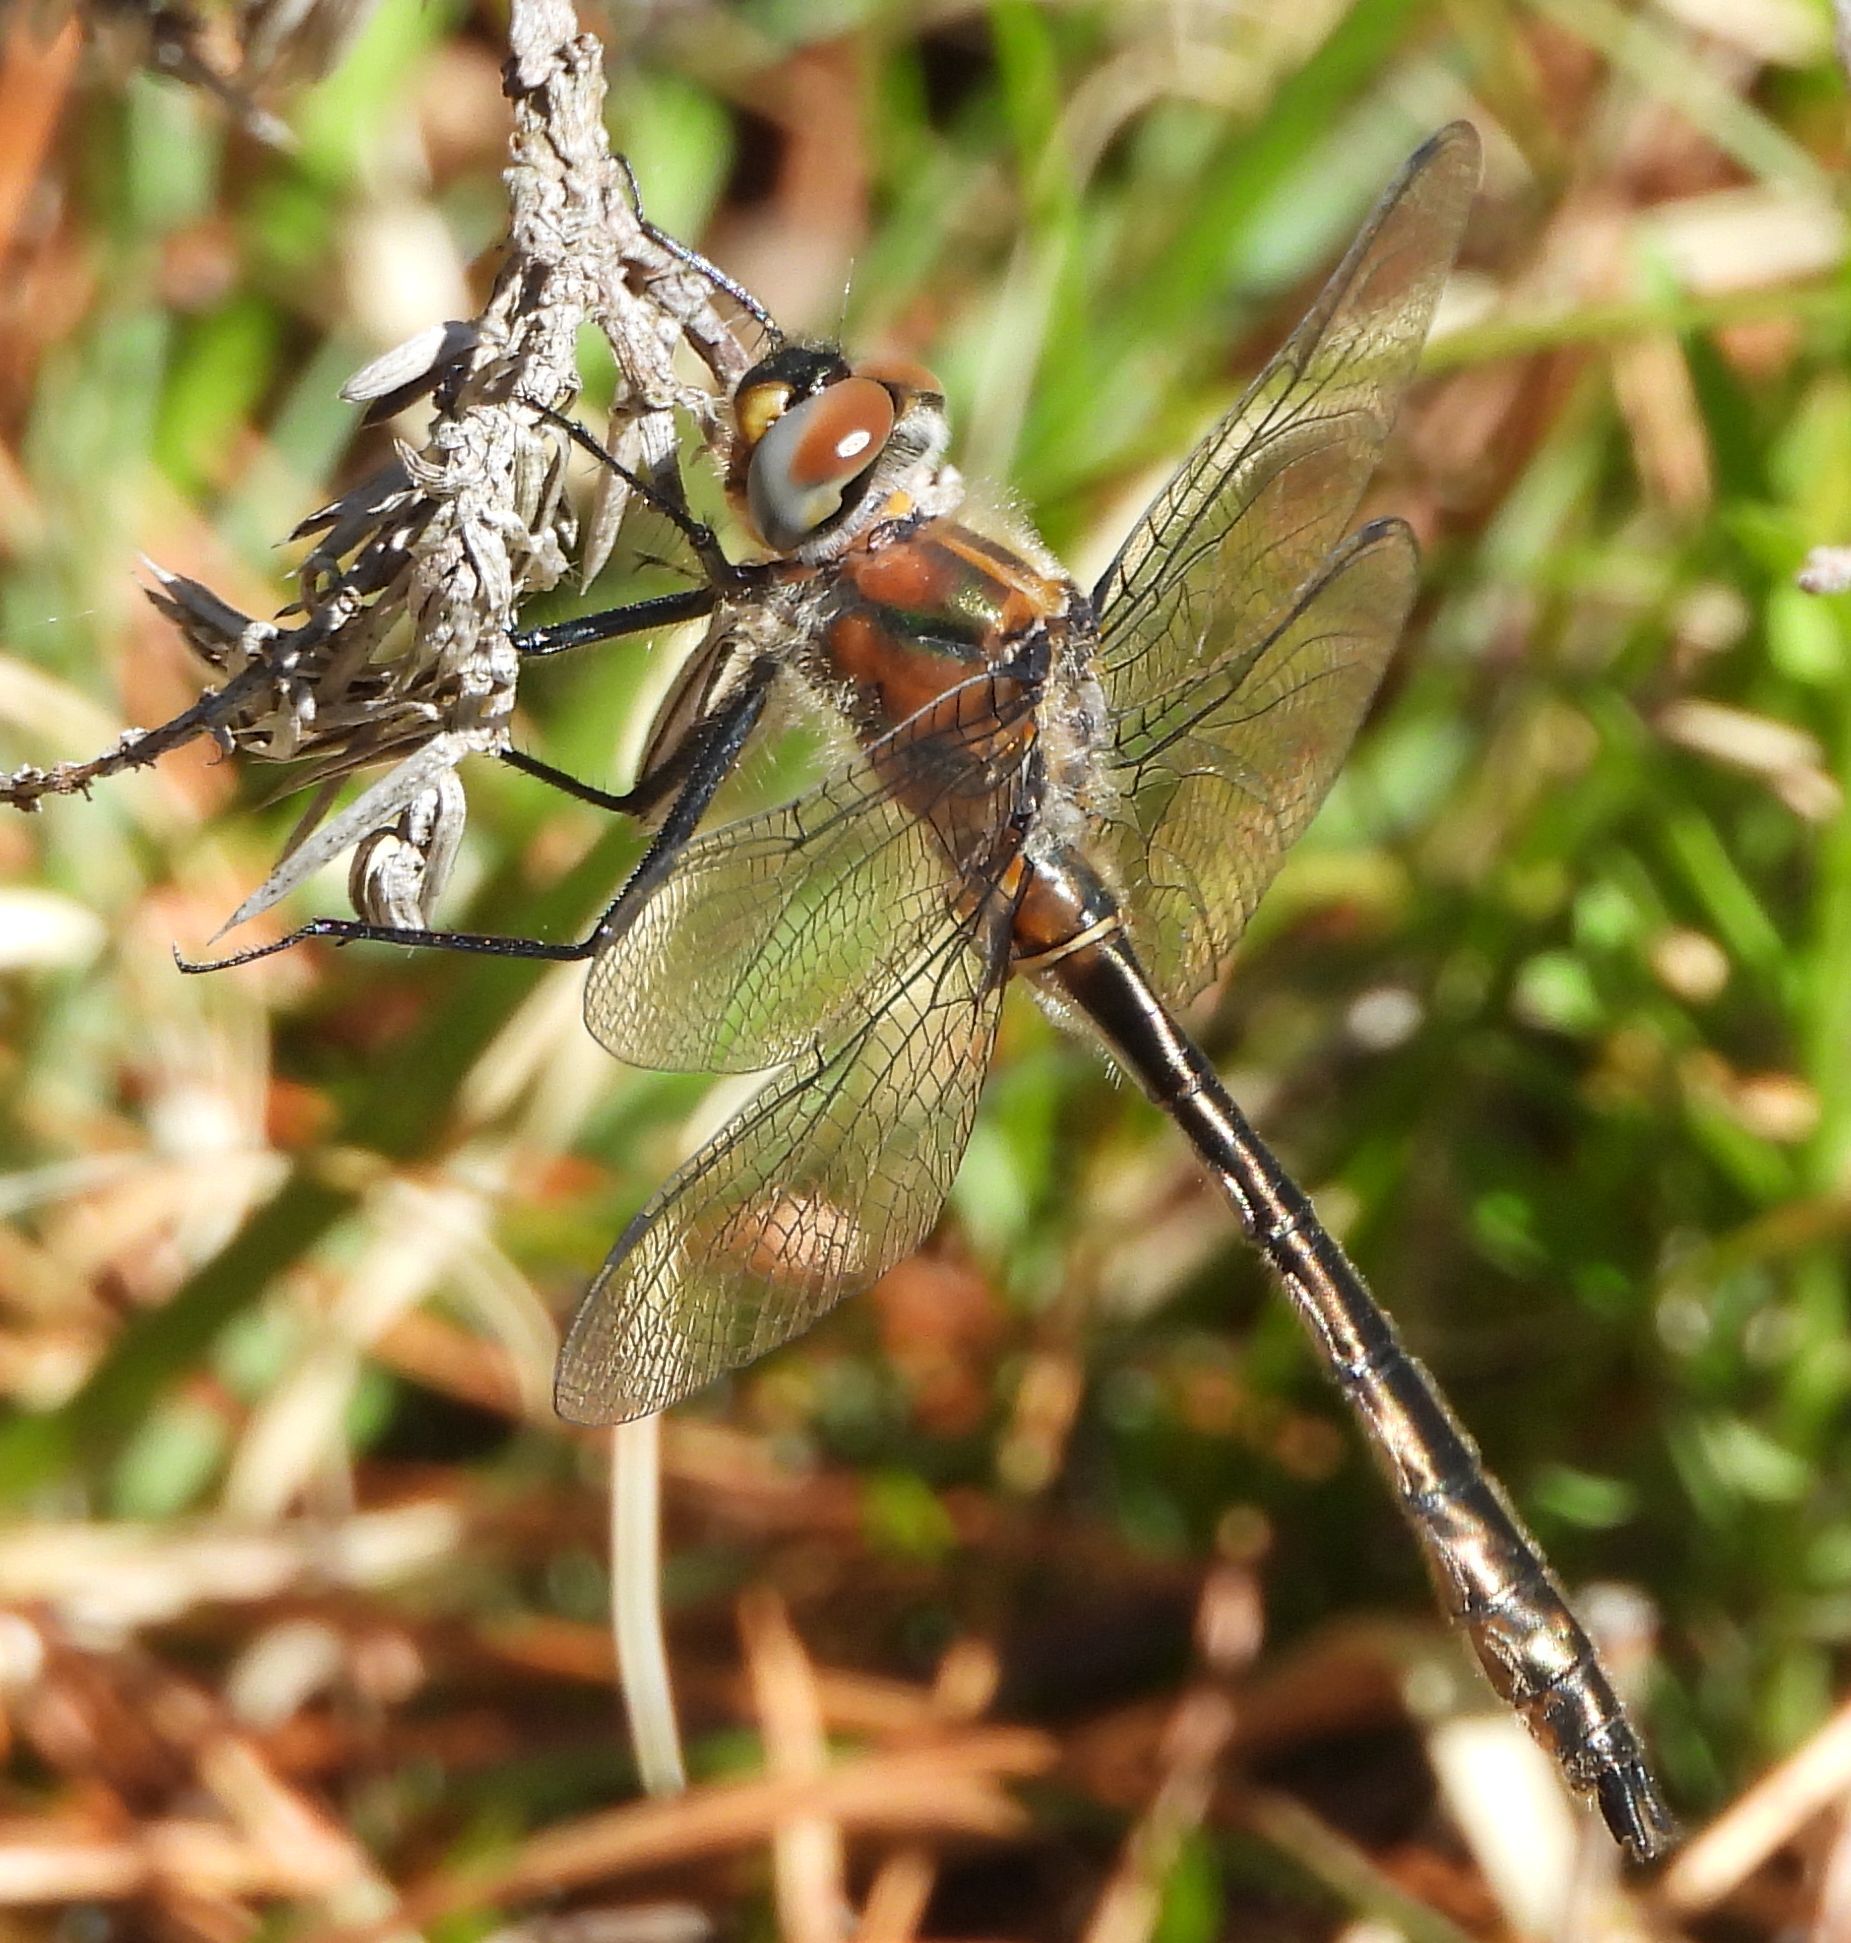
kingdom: Animalia
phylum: Arthropoda
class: Insecta
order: Odonata
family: Corduliidae
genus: Cordulia
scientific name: Cordulia shurtleffii
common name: American emerald
